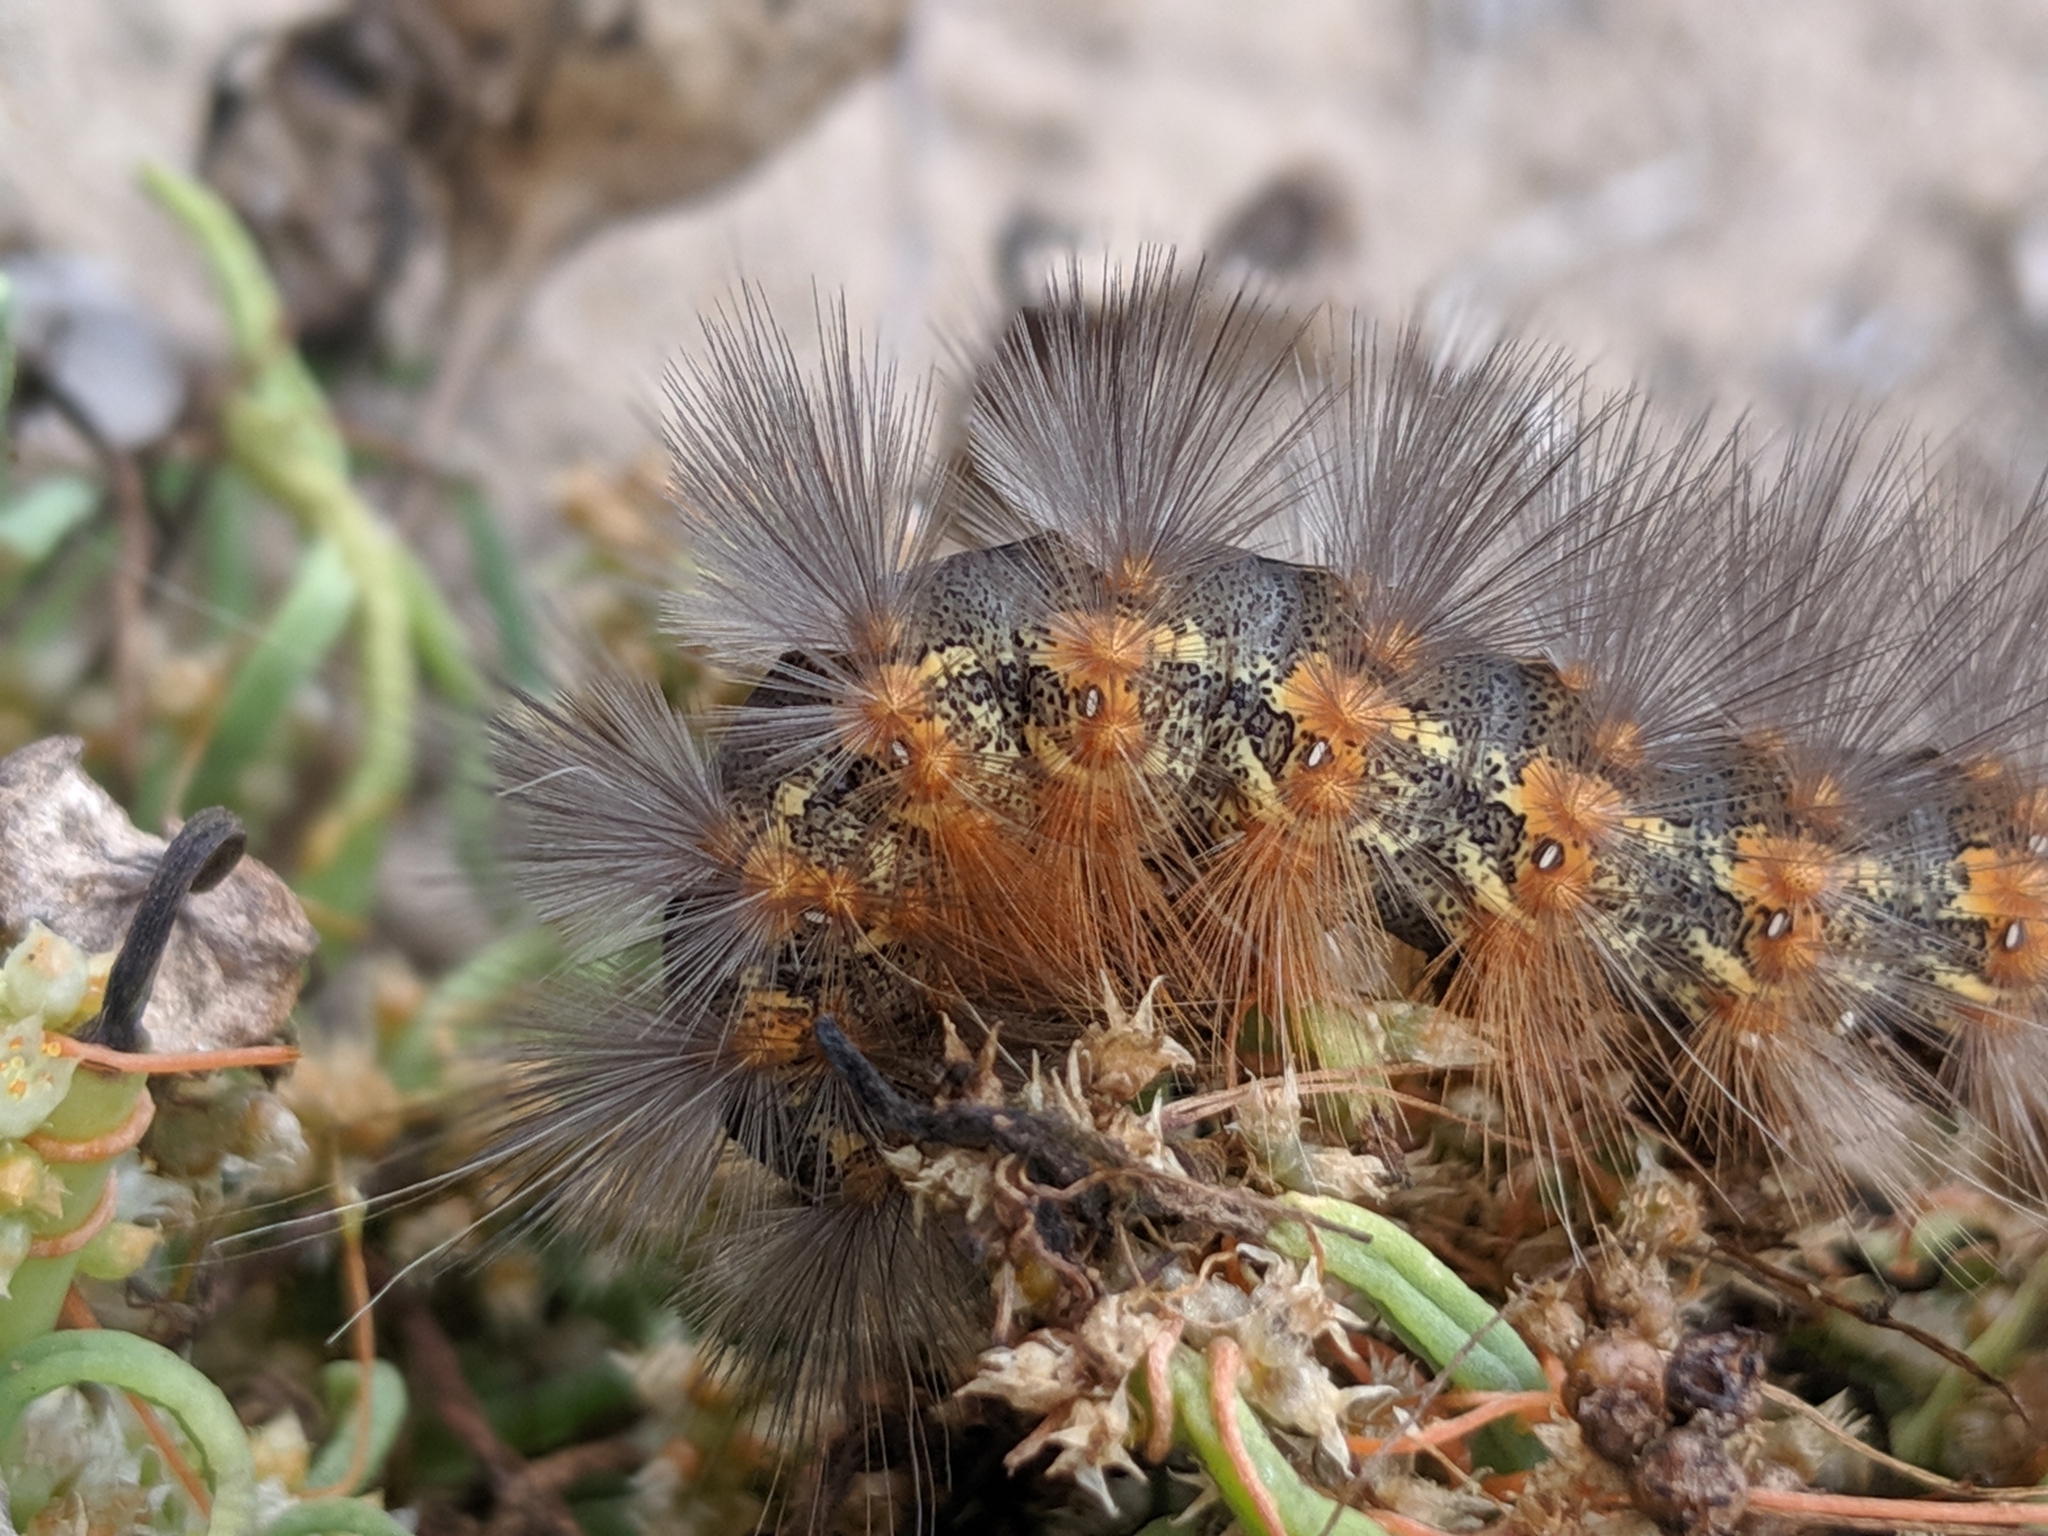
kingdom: Animalia
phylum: Arthropoda
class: Insecta
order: Lepidoptera
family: Erebidae
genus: Estigmene
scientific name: Estigmene acrea
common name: Salt marsh moth
